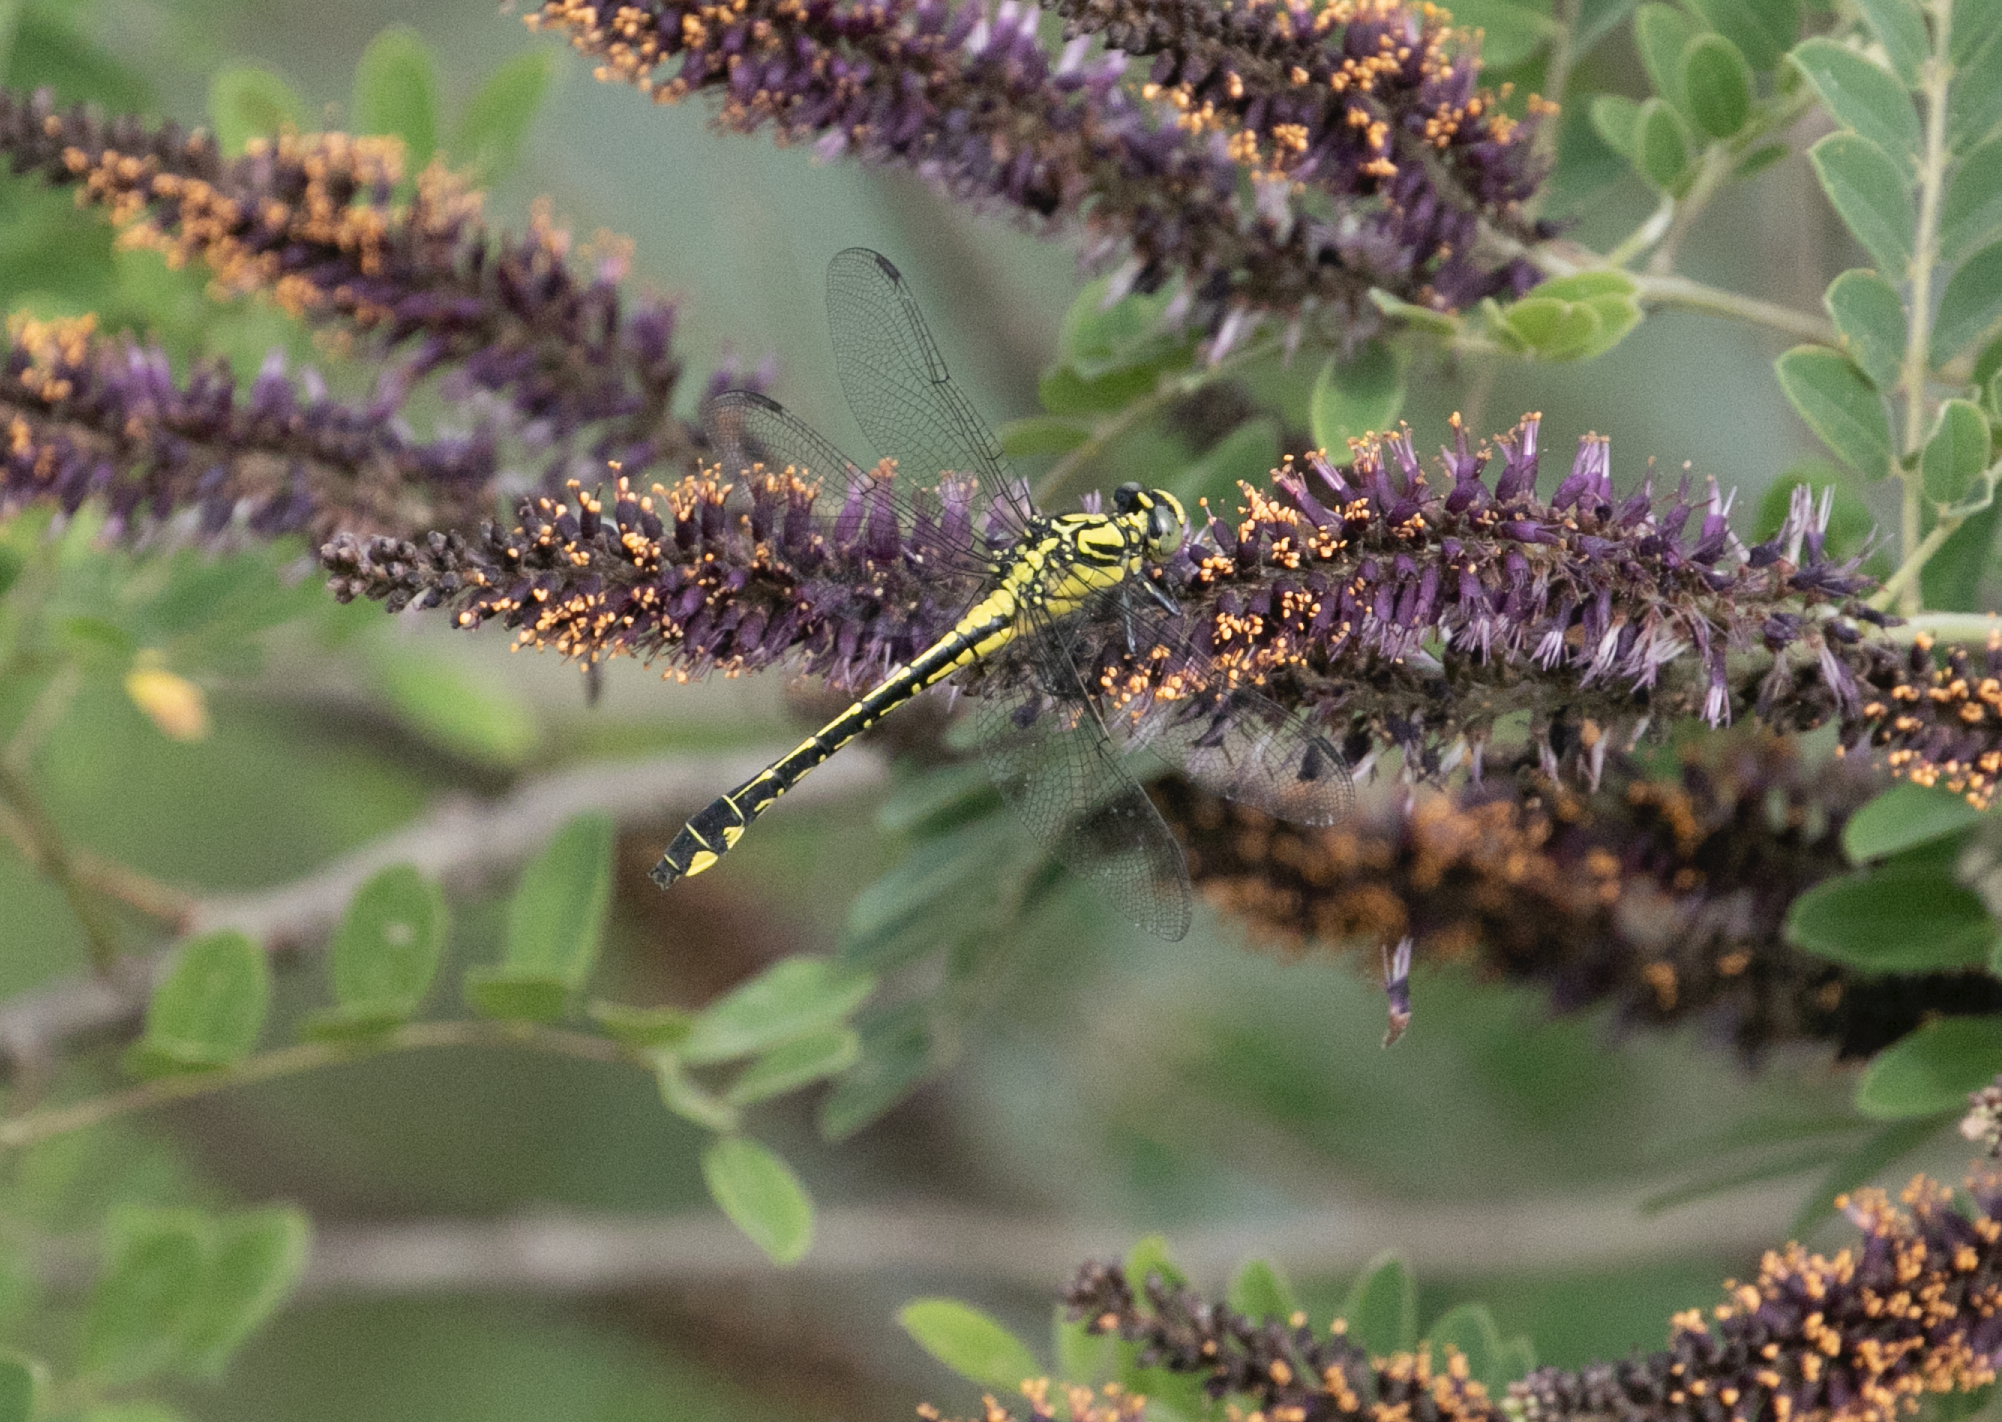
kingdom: Animalia
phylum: Arthropoda
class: Insecta
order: Odonata
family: Gomphidae
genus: Gomphus
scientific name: Gomphus vulgatissimus
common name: Club-tailed dragonfly
